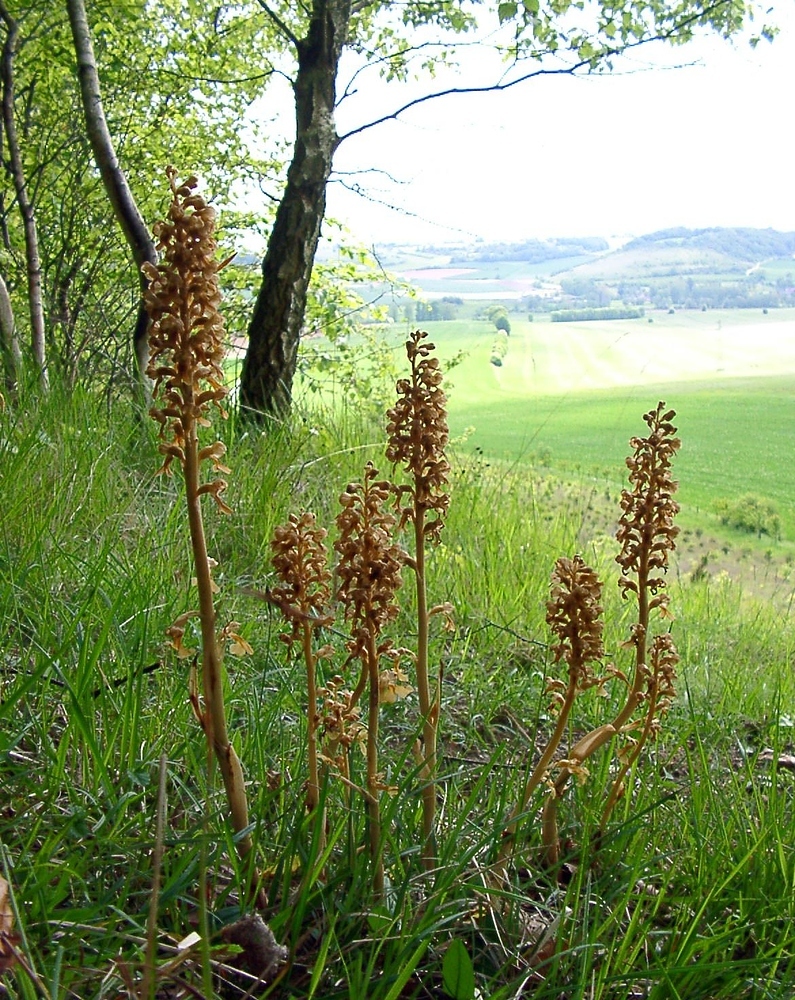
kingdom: Plantae
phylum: Tracheophyta
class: Liliopsida
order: Asparagales
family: Orchidaceae
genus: Neottia
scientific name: Neottia nidus-avis
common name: Bird's-nest orchid
